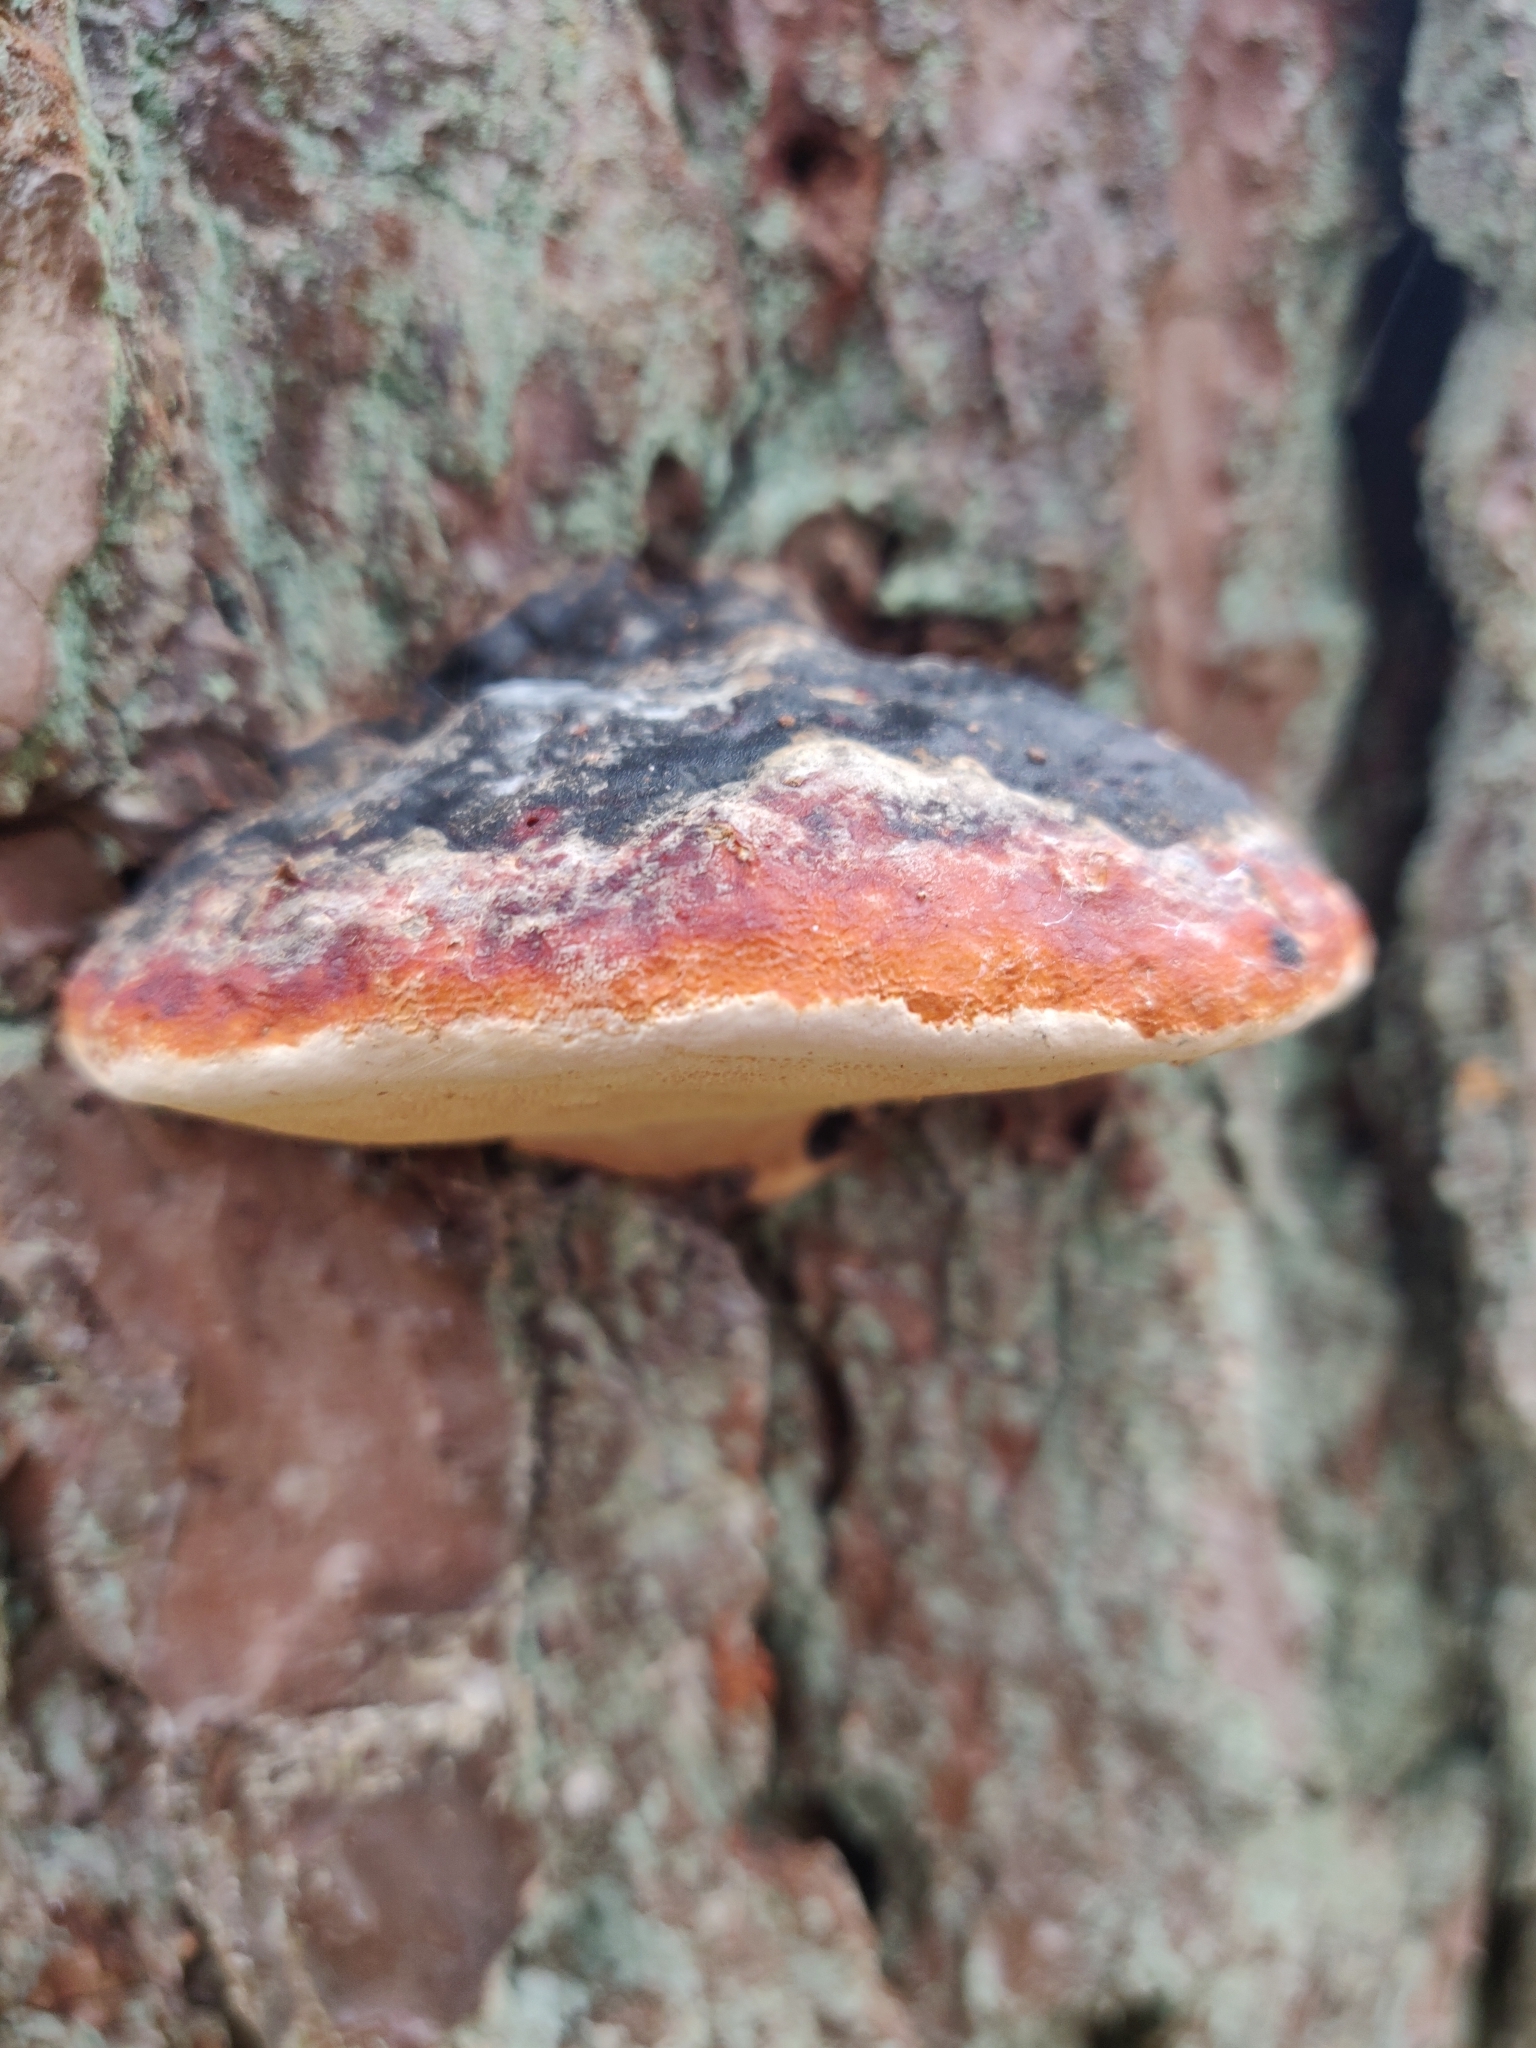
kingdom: Fungi
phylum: Basidiomycota
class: Agaricomycetes
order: Polyporales
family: Fomitopsidaceae
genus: Fomitopsis
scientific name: Fomitopsis pinicola
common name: Red-belted bracket
